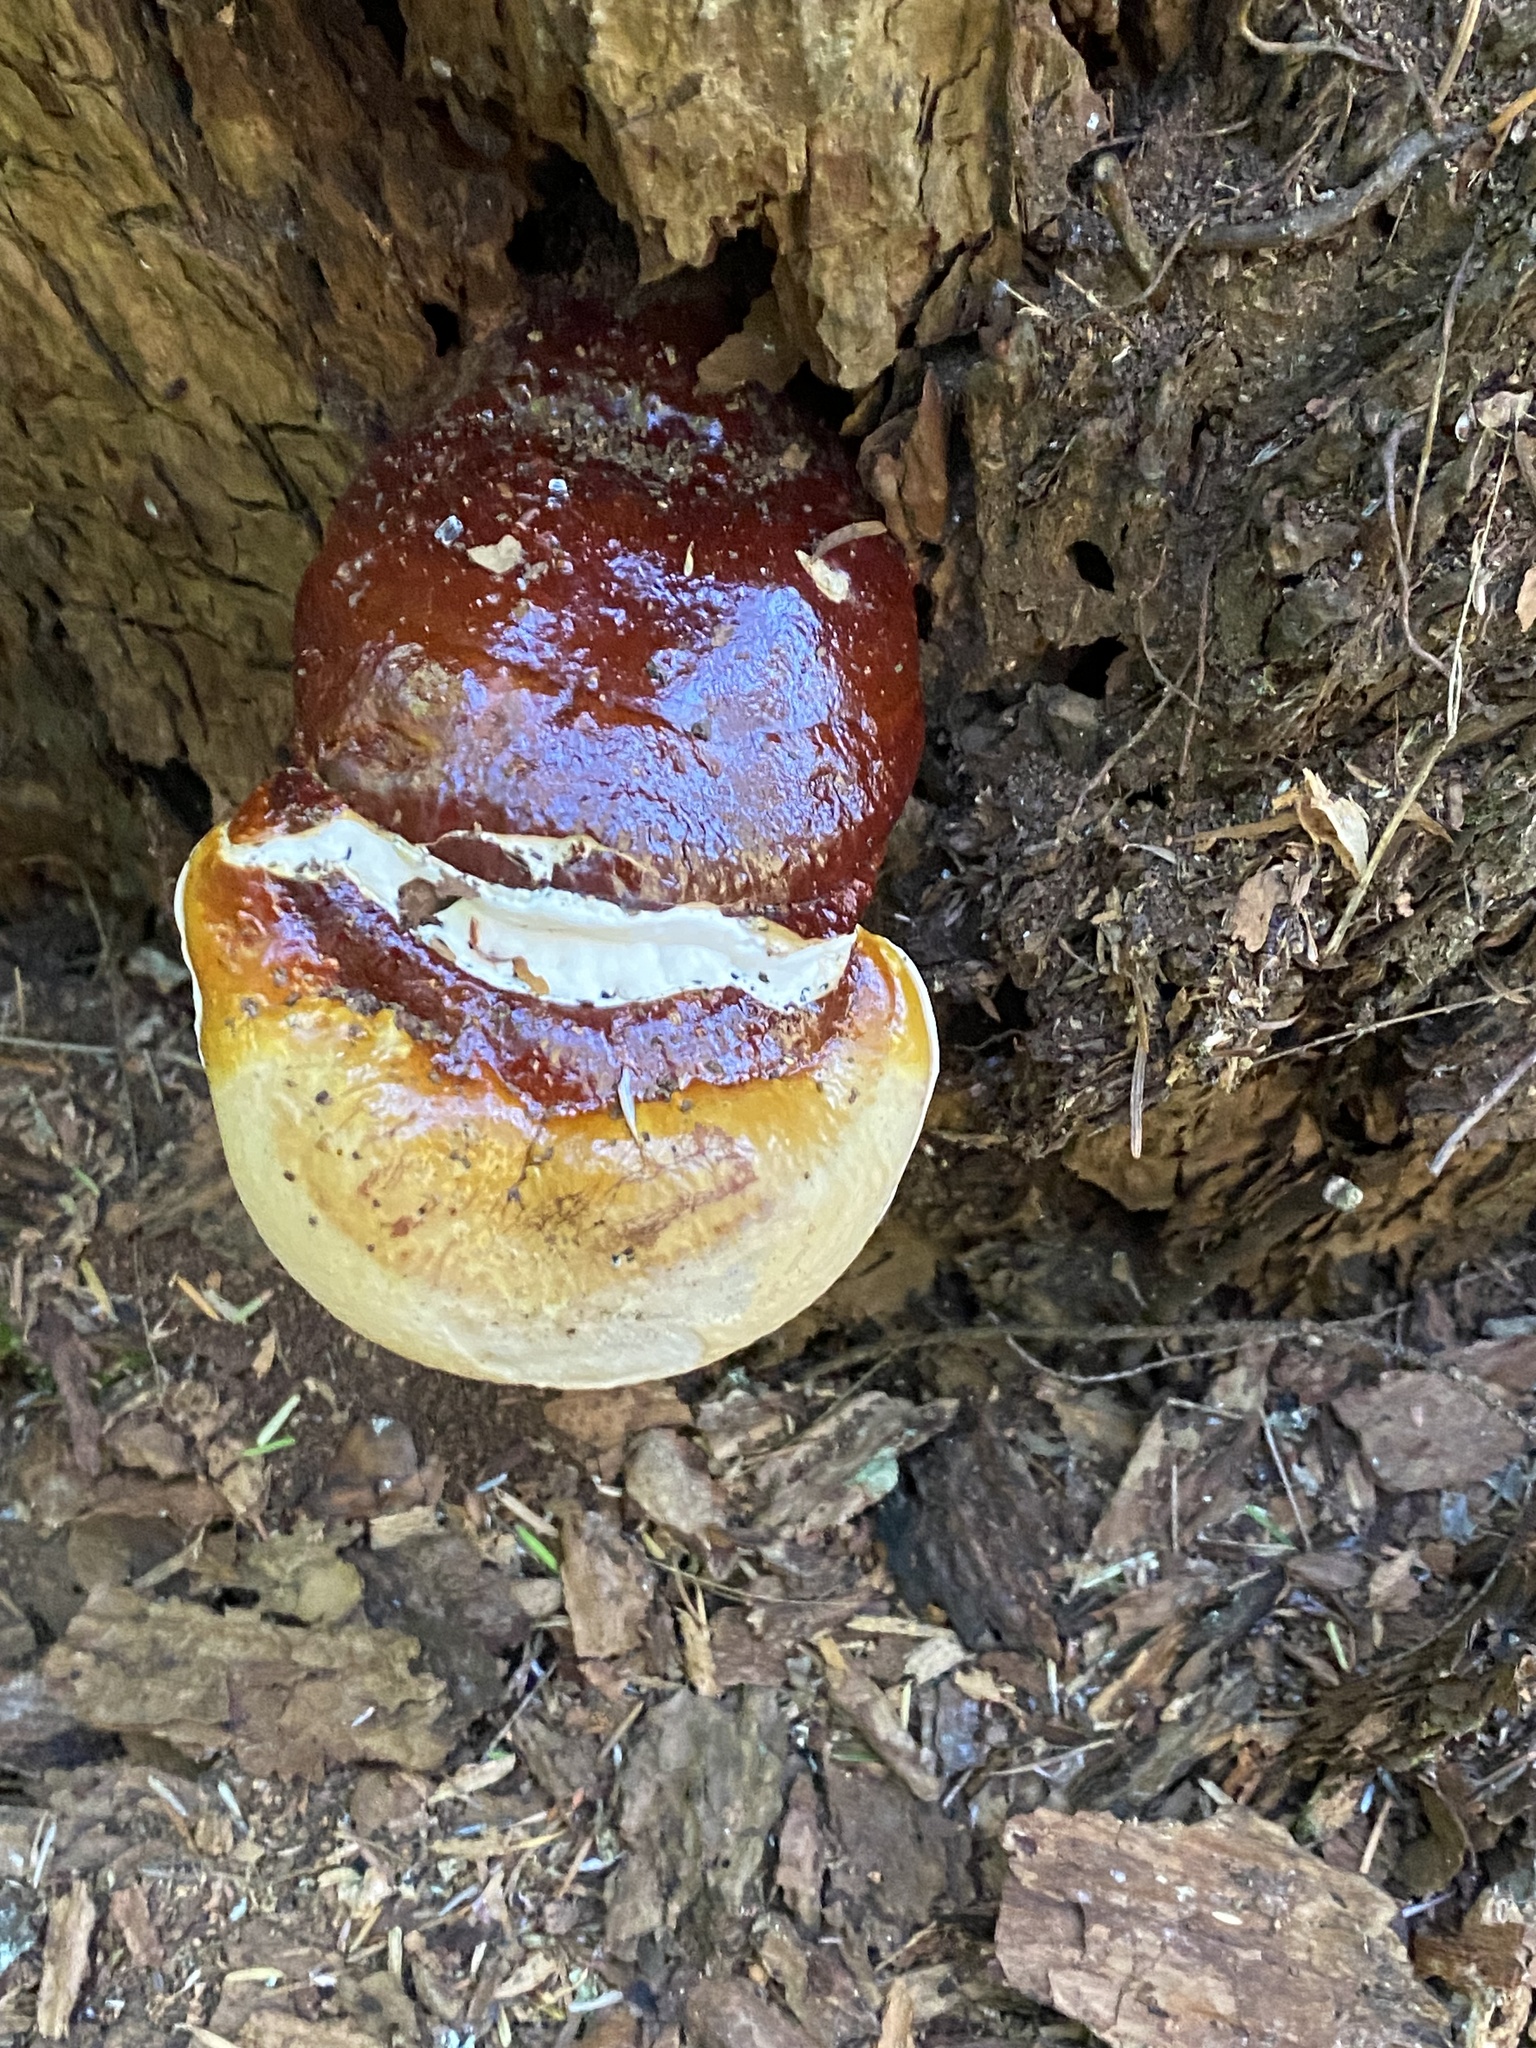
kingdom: Fungi
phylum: Basidiomycota
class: Agaricomycetes
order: Polyporales
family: Polyporaceae
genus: Ganoderma
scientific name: Ganoderma oregonense
